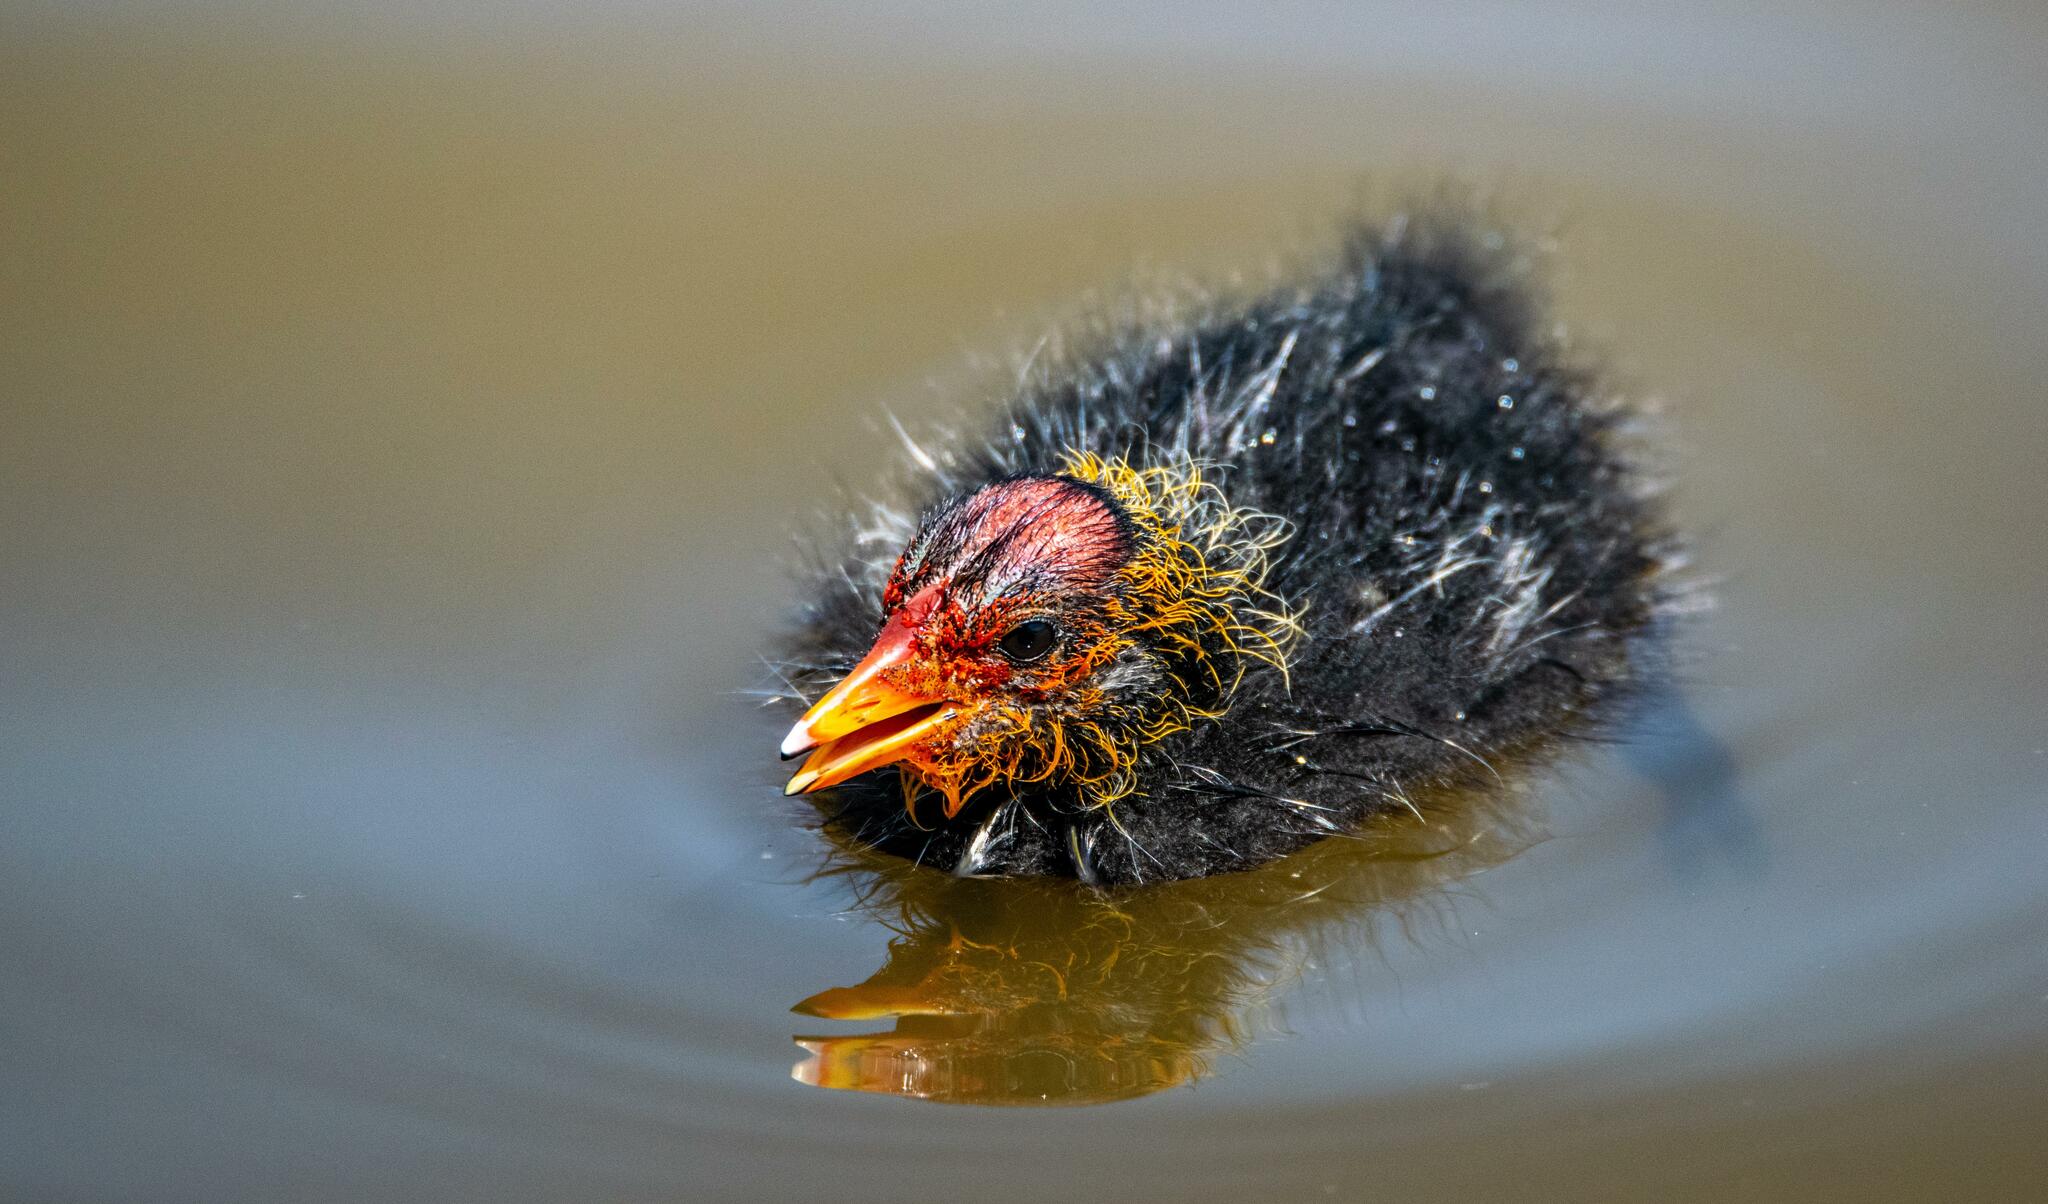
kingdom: Animalia
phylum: Chordata
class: Aves
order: Gruiformes
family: Rallidae
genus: Fulica
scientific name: Fulica atra
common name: Eurasian coot
